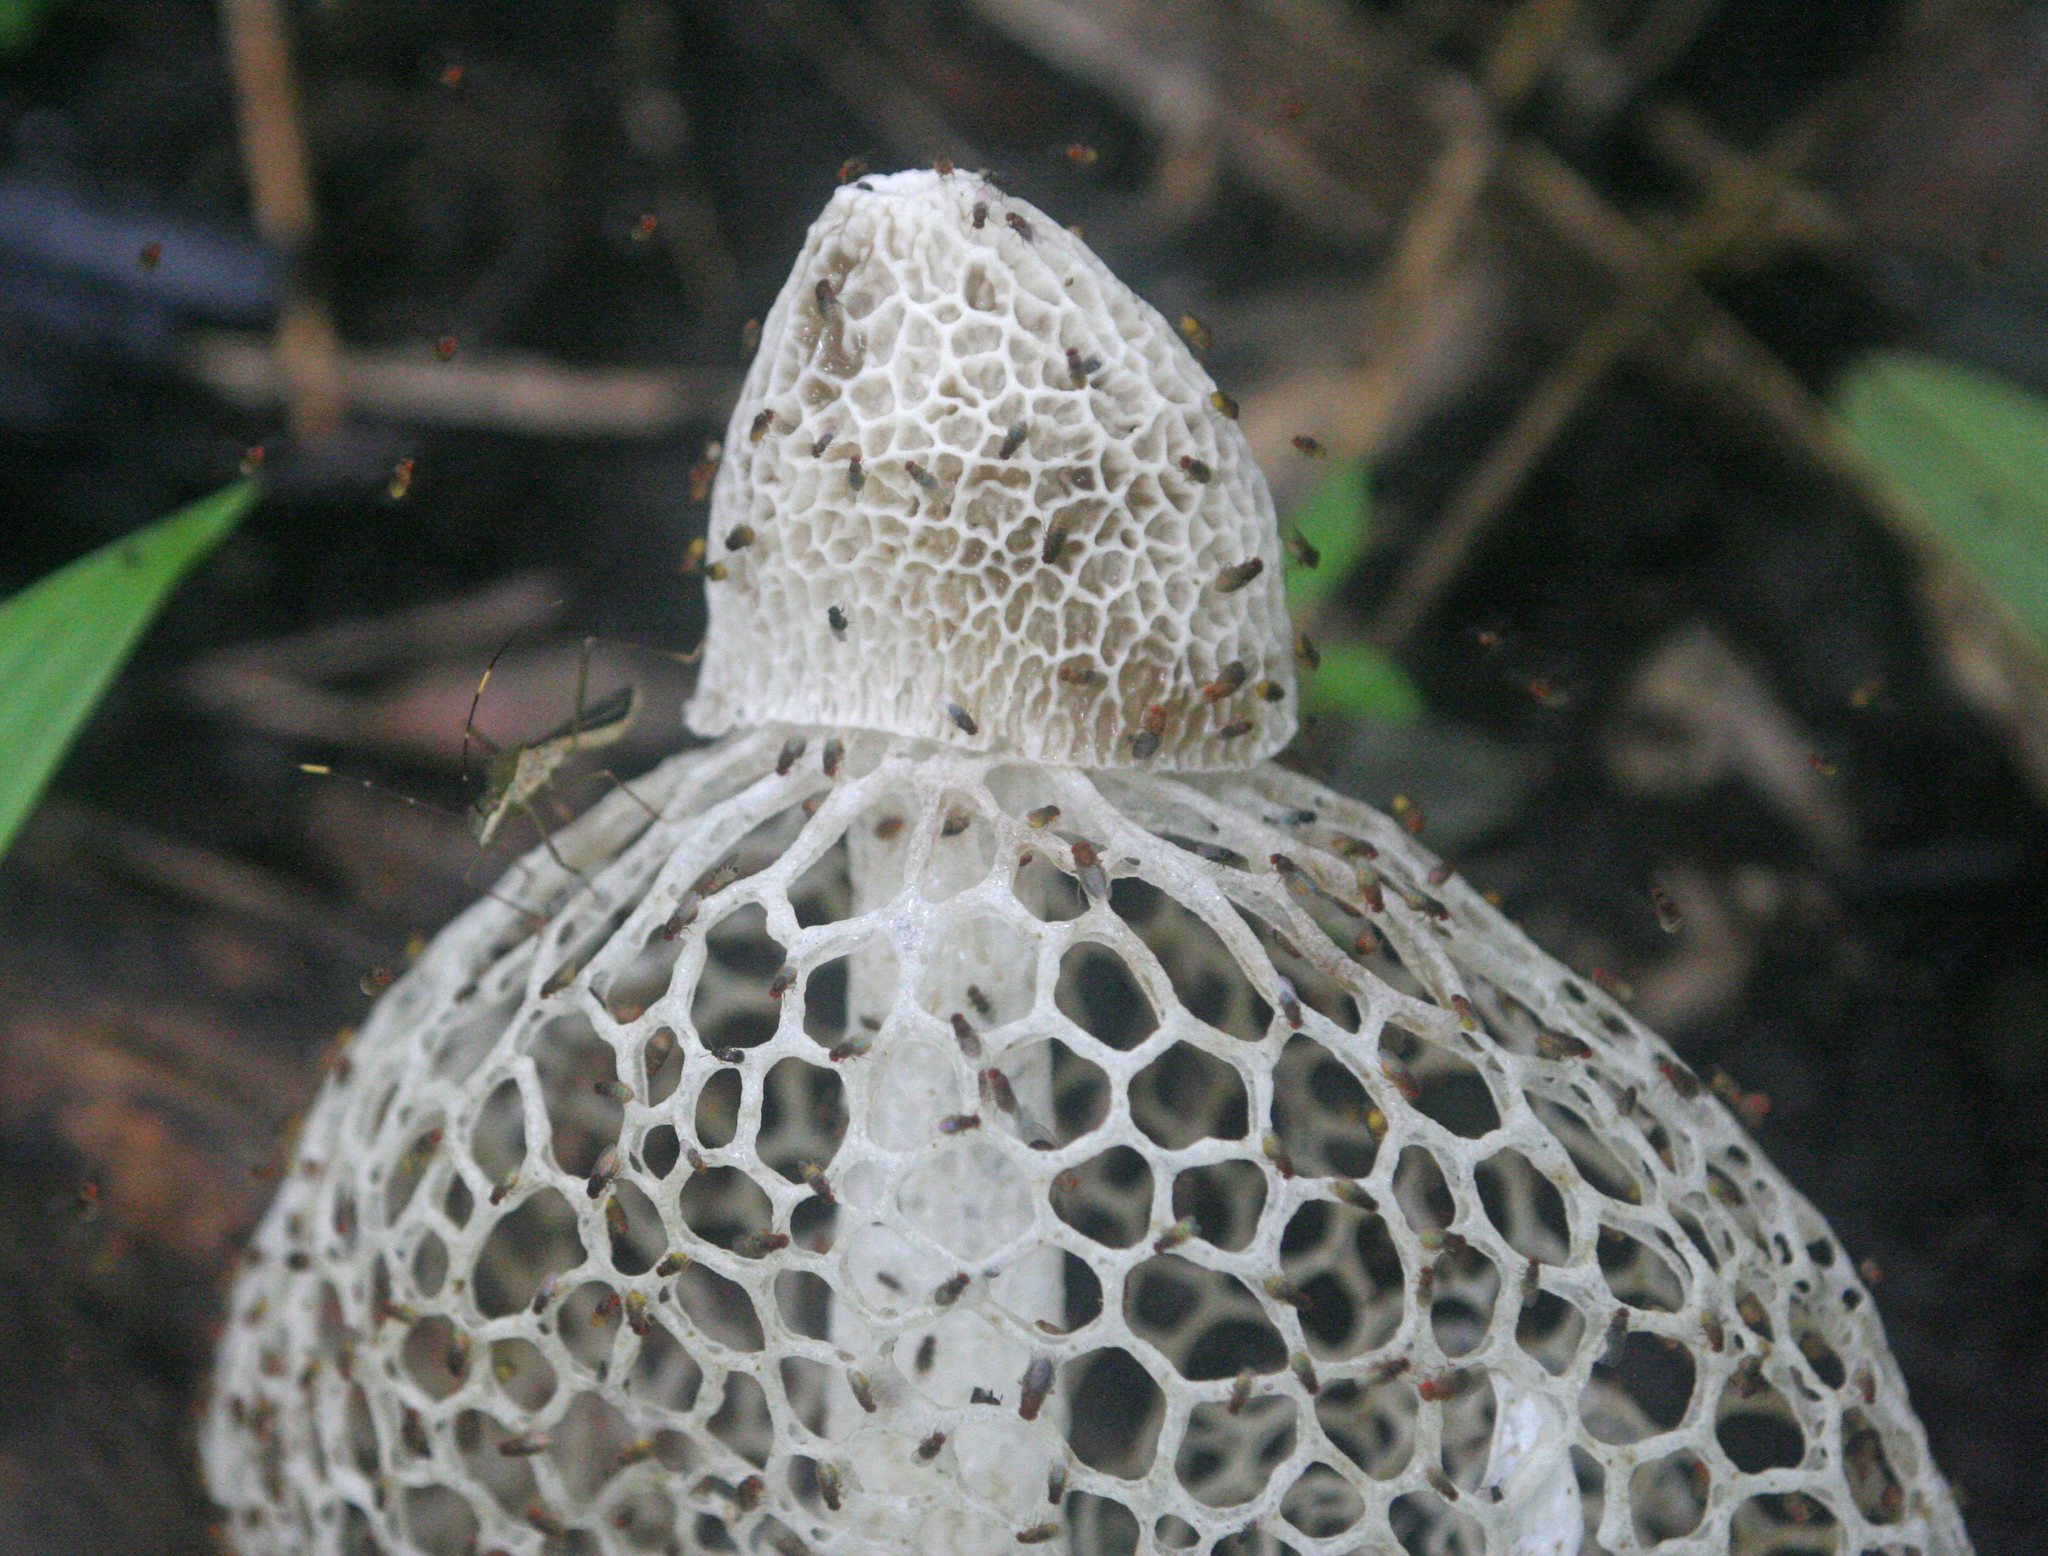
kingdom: Fungi
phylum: Basidiomycota
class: Agaricomycetes
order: Phallales
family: Phallaceae
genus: Phallus
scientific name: Phallus indusiatus
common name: Bridal veil stinkhorn
